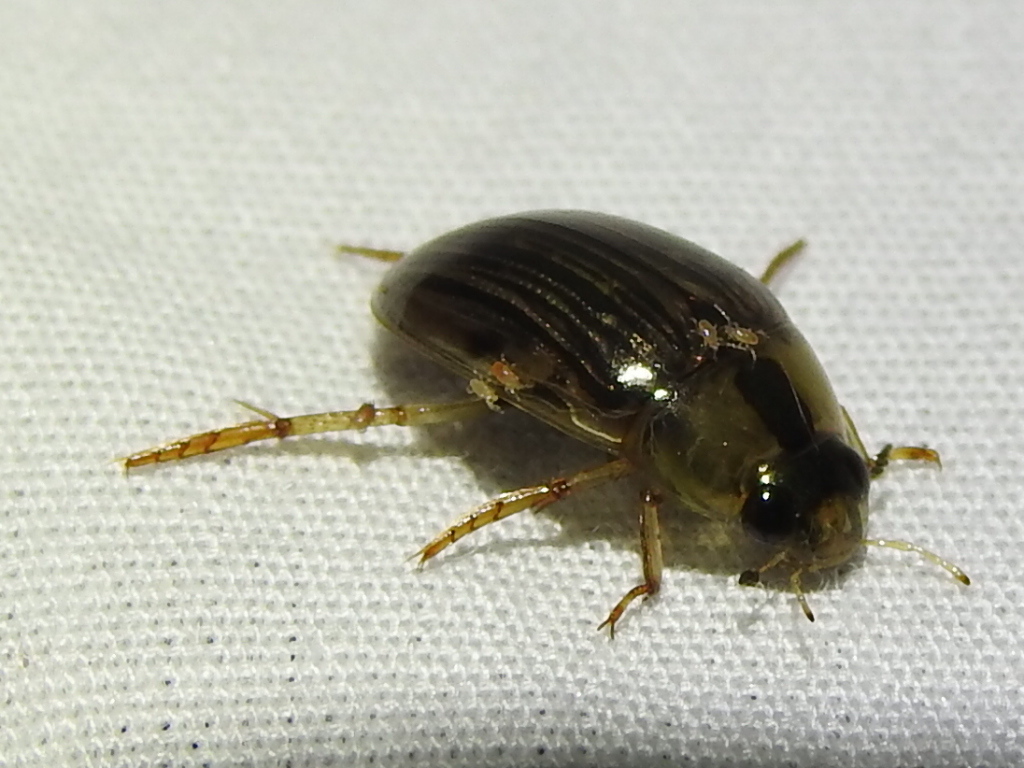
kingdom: Animalia
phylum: Arthropoda
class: Insecta
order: Coleoptera
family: Hydrophilidae
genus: Tropisternus
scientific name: Tropisternus collaris
